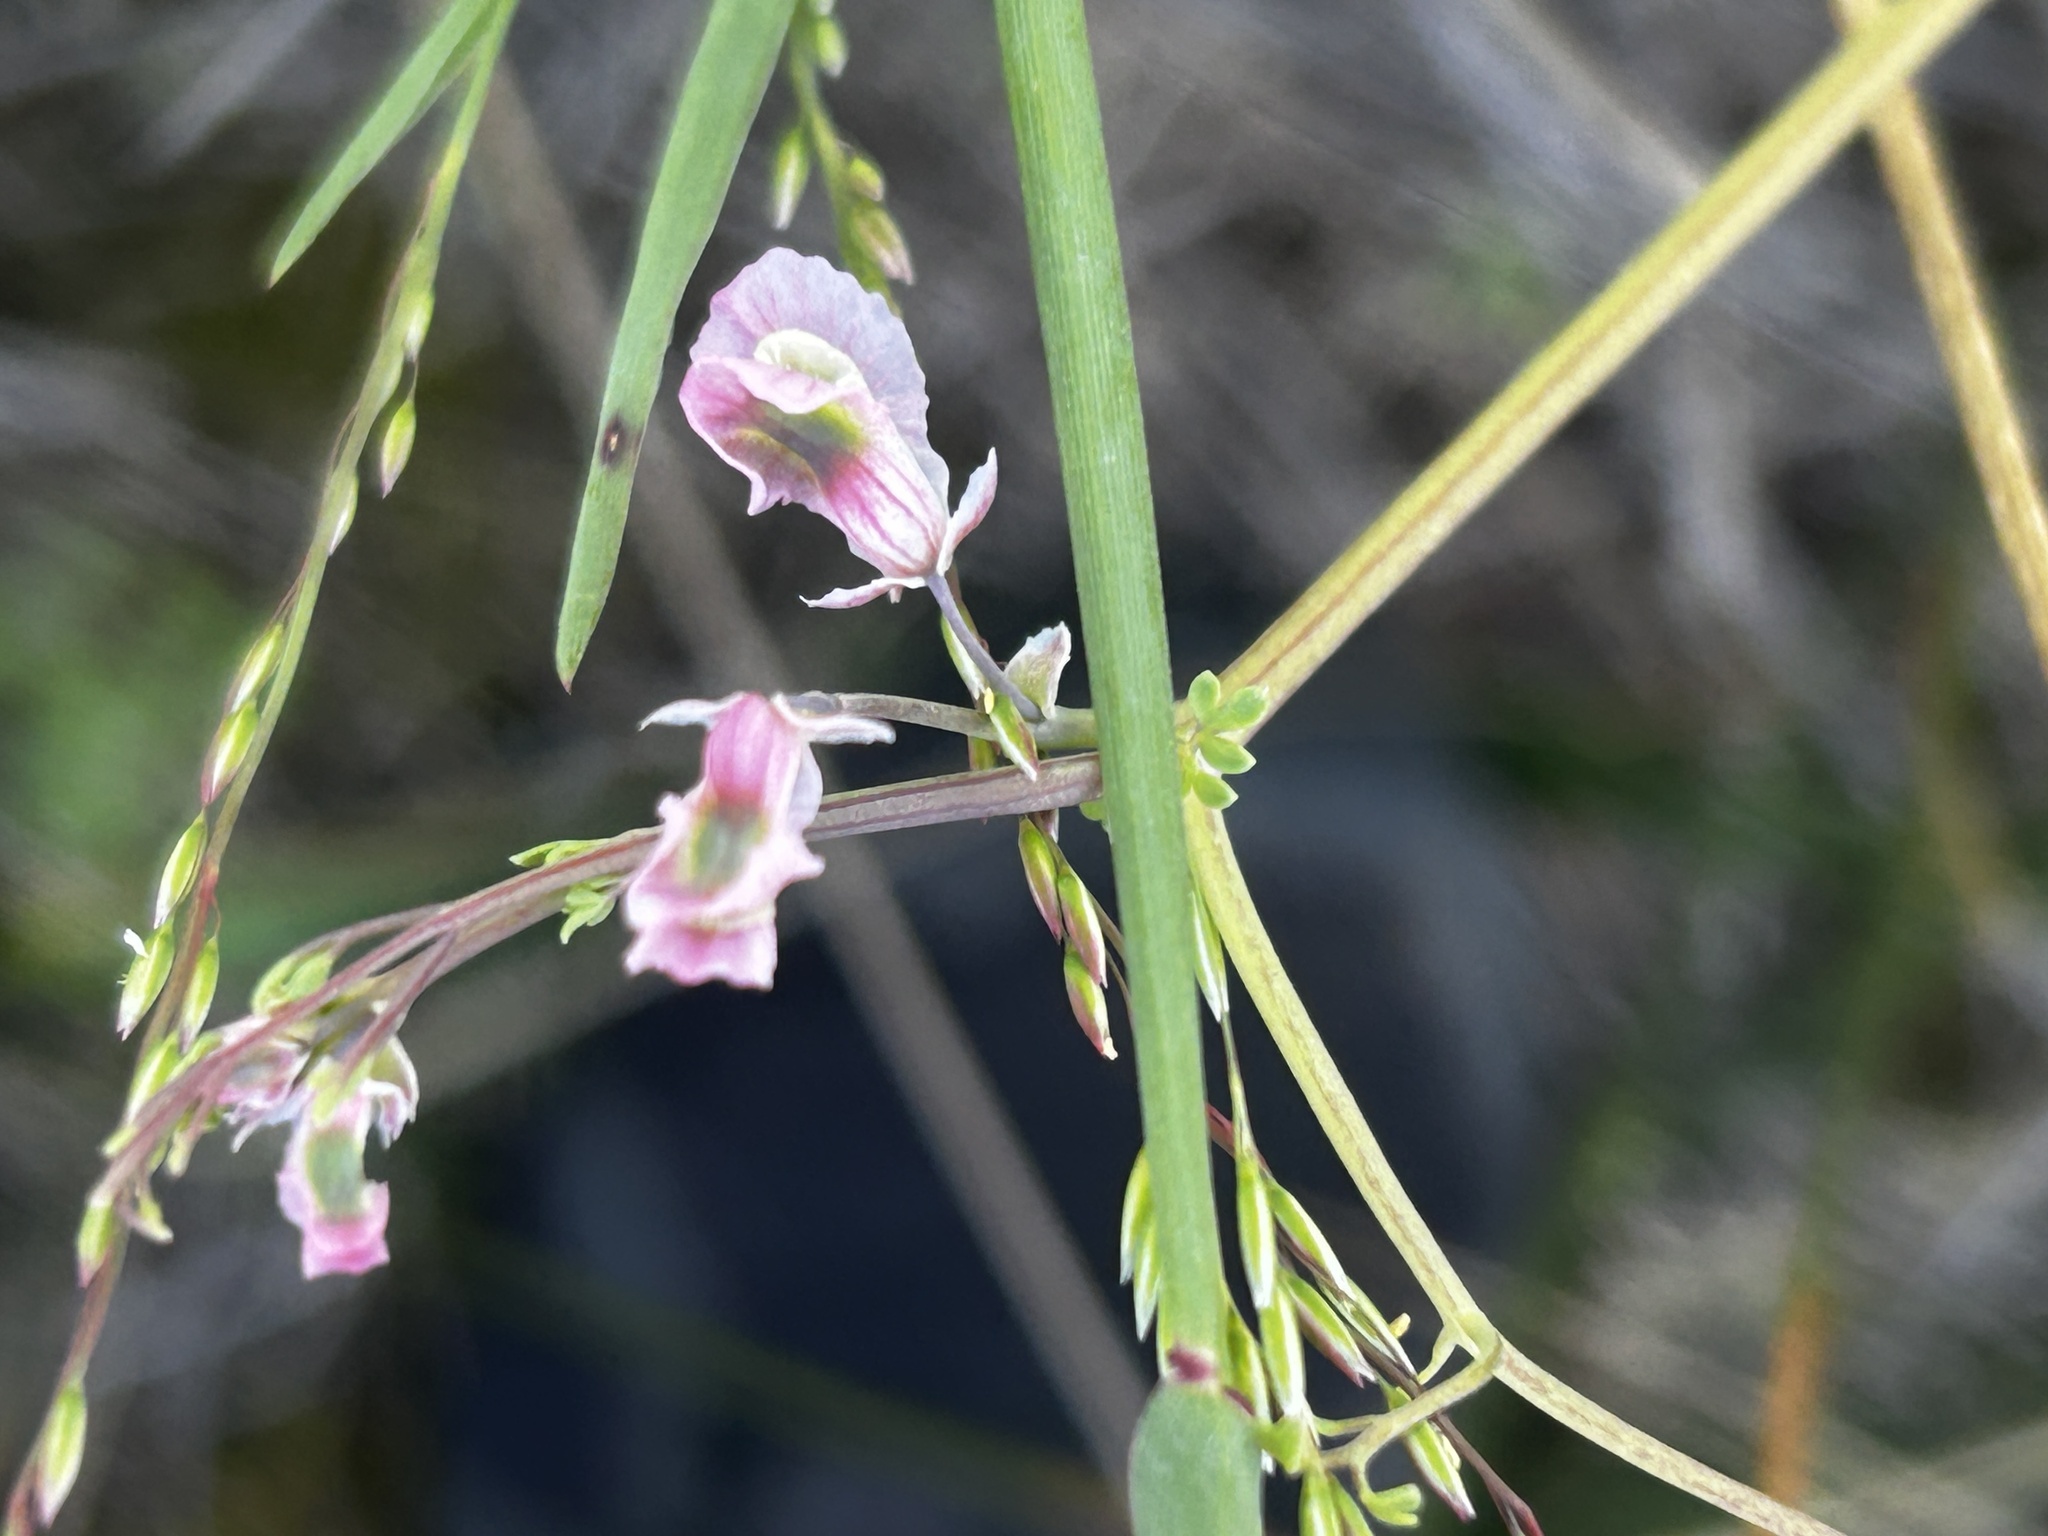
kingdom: Plantae
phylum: Tracheophyta
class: Magnoliopsida
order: Ranunculales
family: Papaveraceae
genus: Cysticapnos
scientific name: Cysticapnos vesicaria
